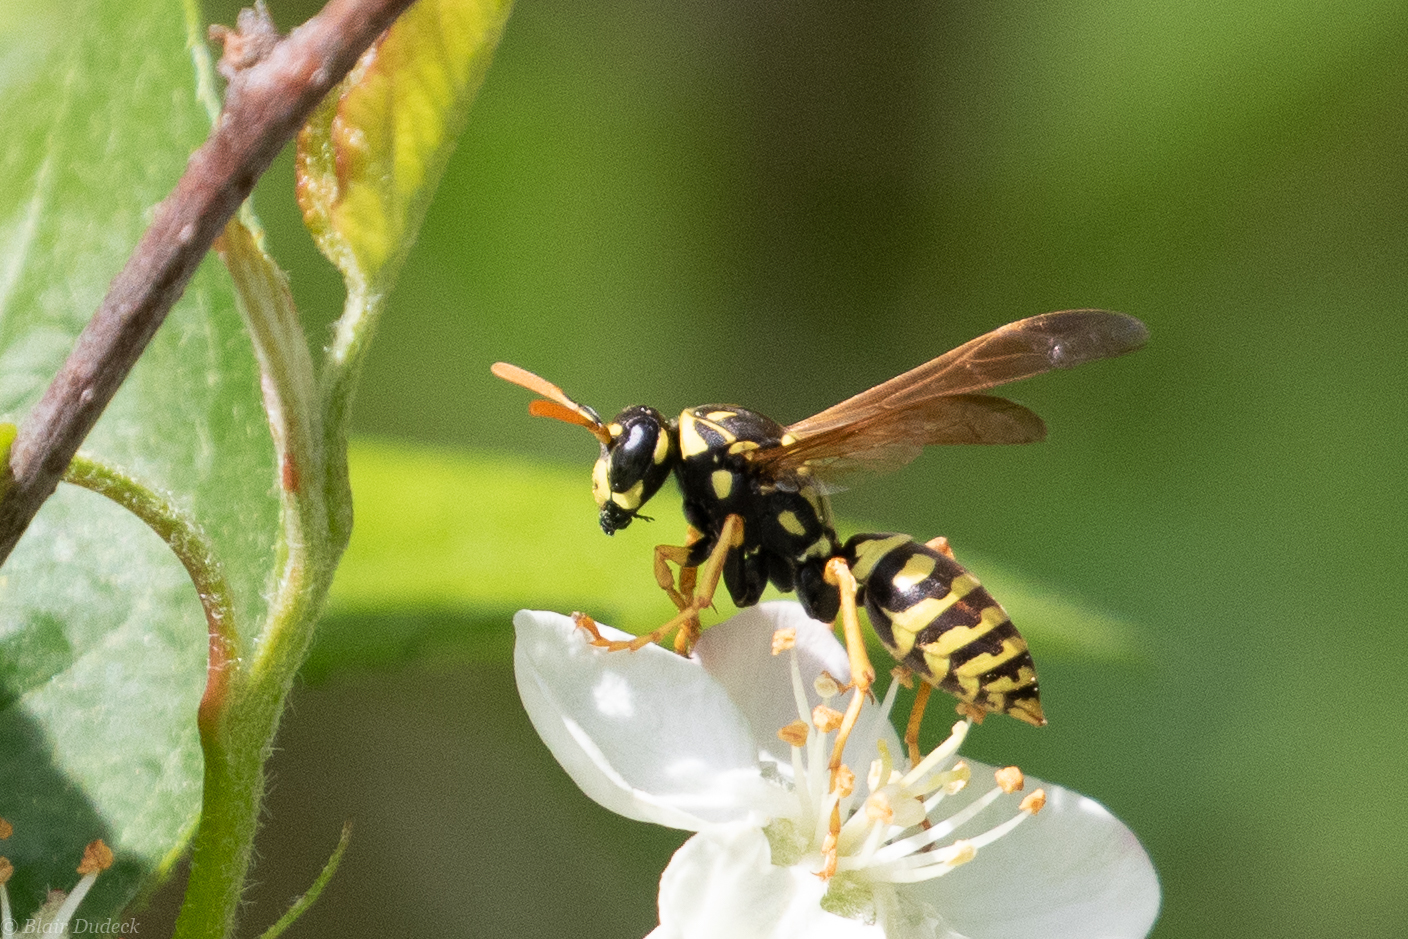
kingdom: Animalia
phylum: Arthropoda
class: Insecta
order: Hymenoptera
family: Eumenidae
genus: Polistes
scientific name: Polistes dominula
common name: Paper wasp
